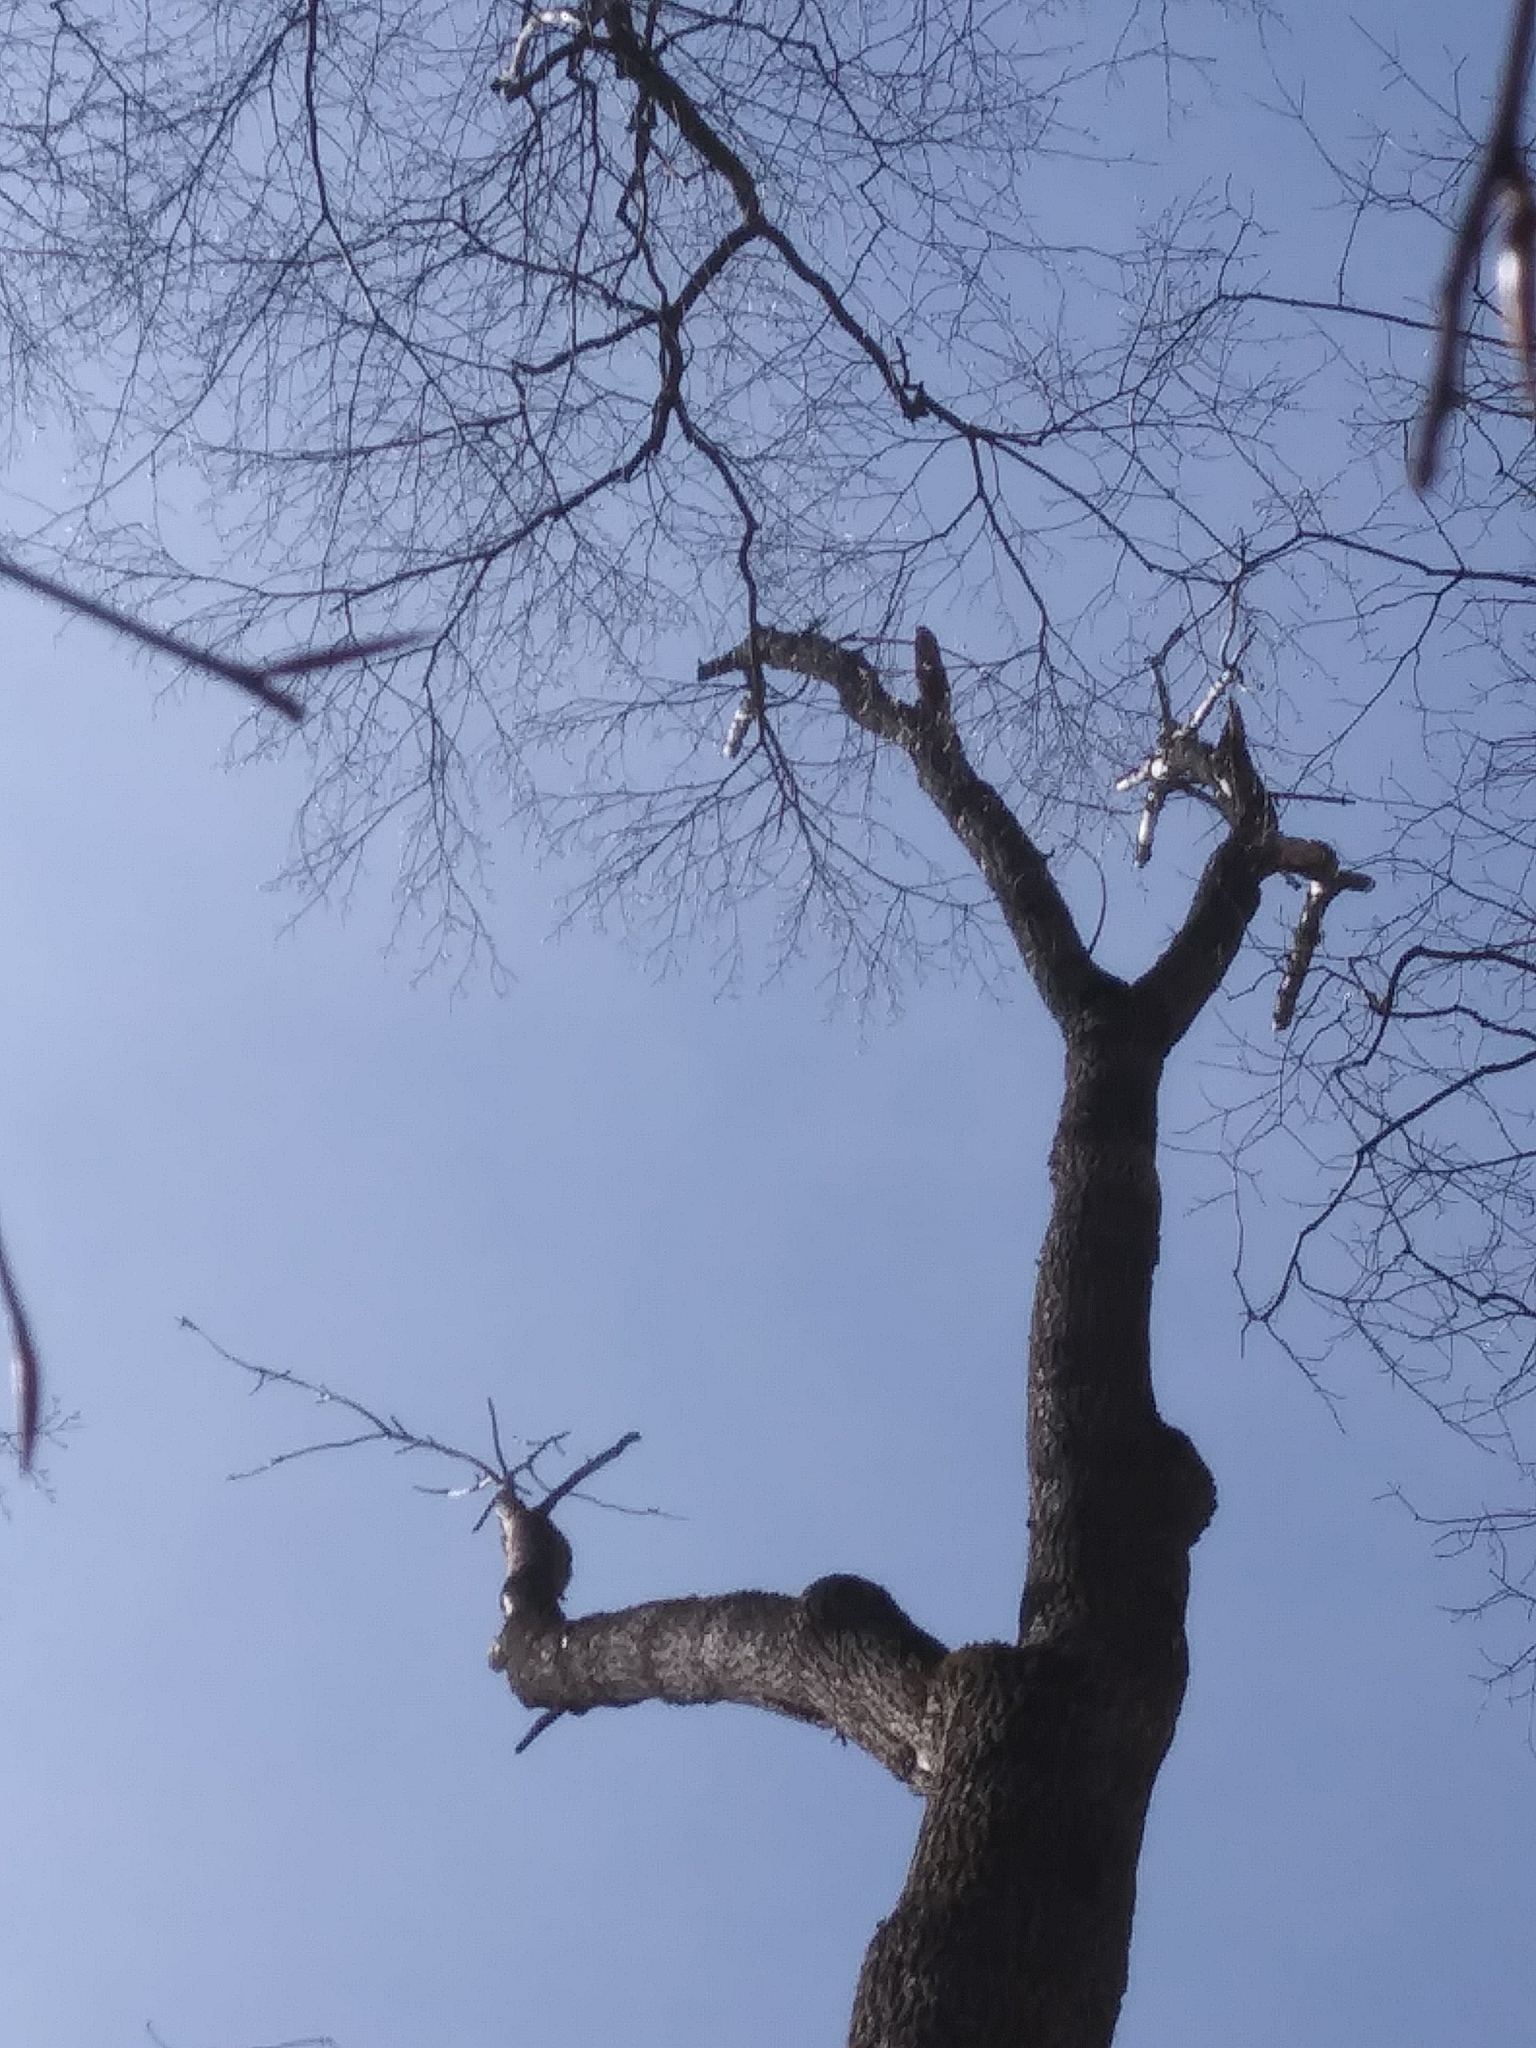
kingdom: Plantae
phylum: Tracheophyta
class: Magnoliopsida
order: Lamiales
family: Oleaceae
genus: Fraxinus
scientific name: Fraxinus americana
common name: White ash
